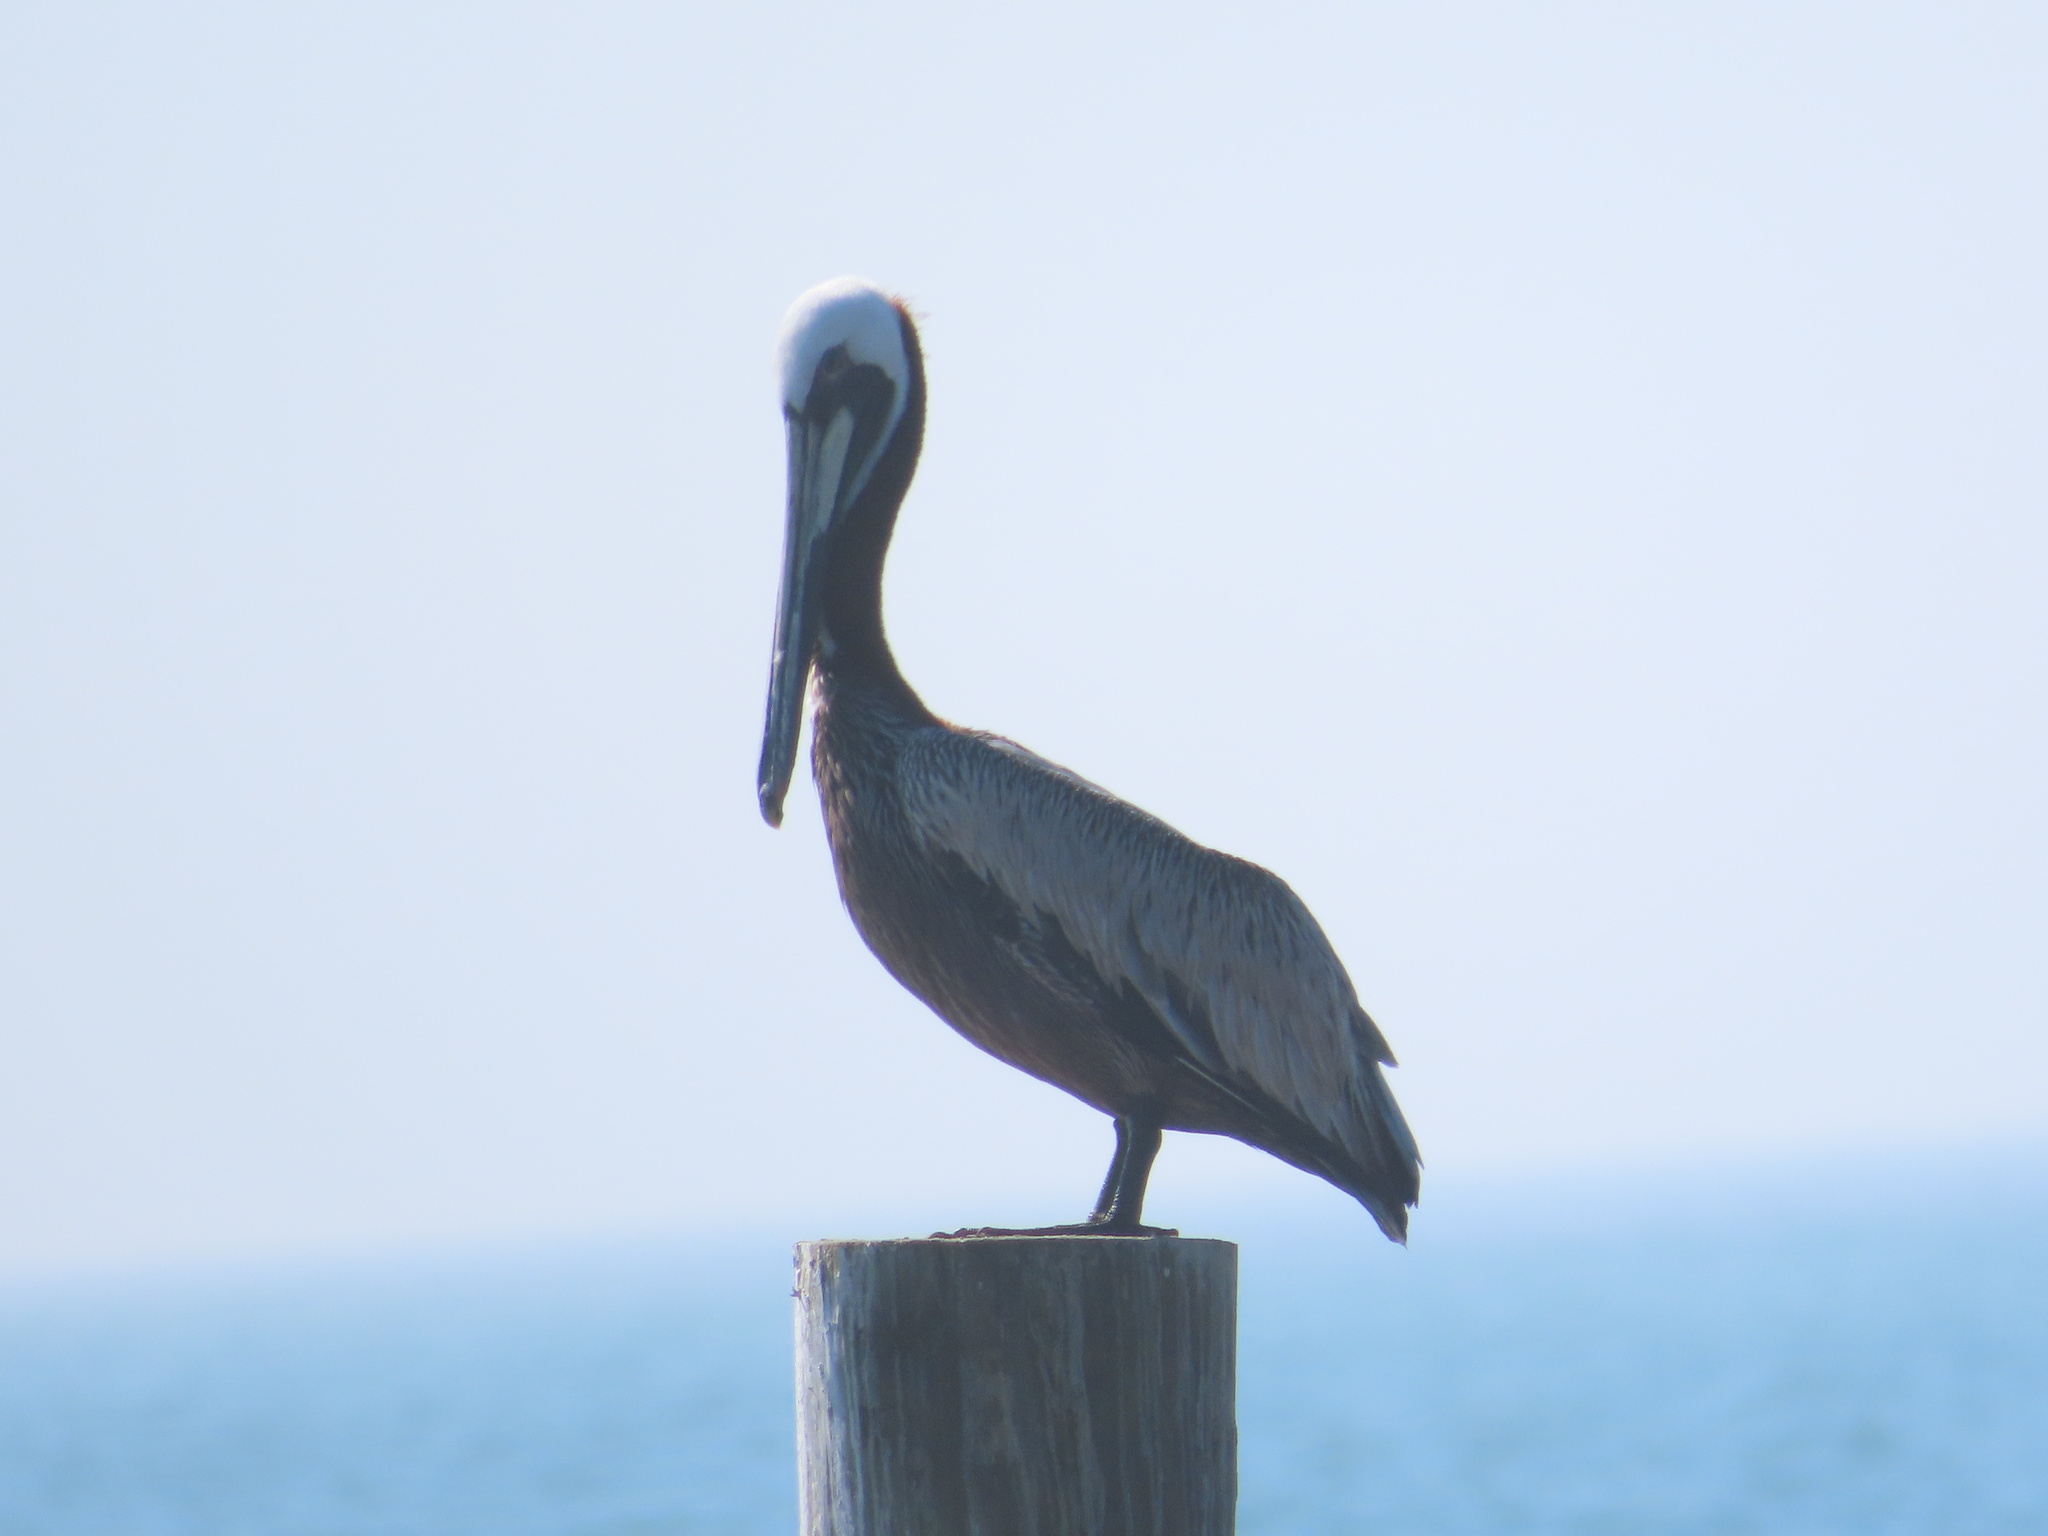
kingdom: Animalia
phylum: Chordata
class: Aves
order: Pelecaniformes
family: Pelecanidae
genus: Pelecanus
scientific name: Pelecanus occidentalis
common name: Brown pelican
